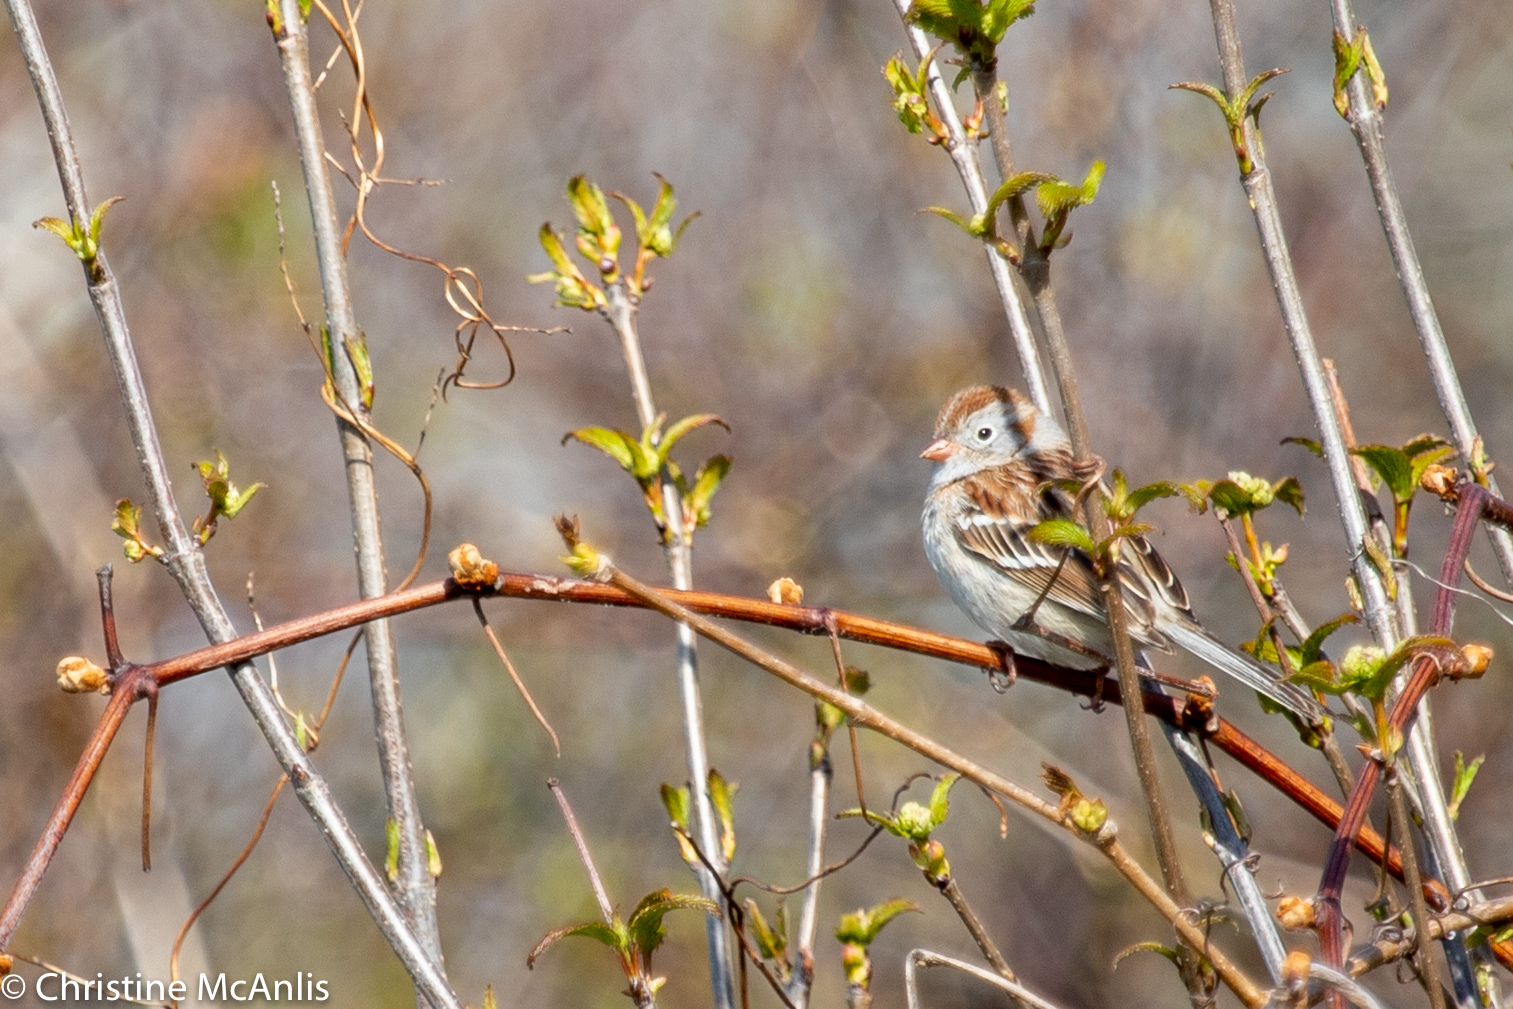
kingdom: Animalia
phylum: Chordata
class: Aves
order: Passeriformes
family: Passerellidae
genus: Spizella
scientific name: Spizella pusilla
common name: Field sparrow
